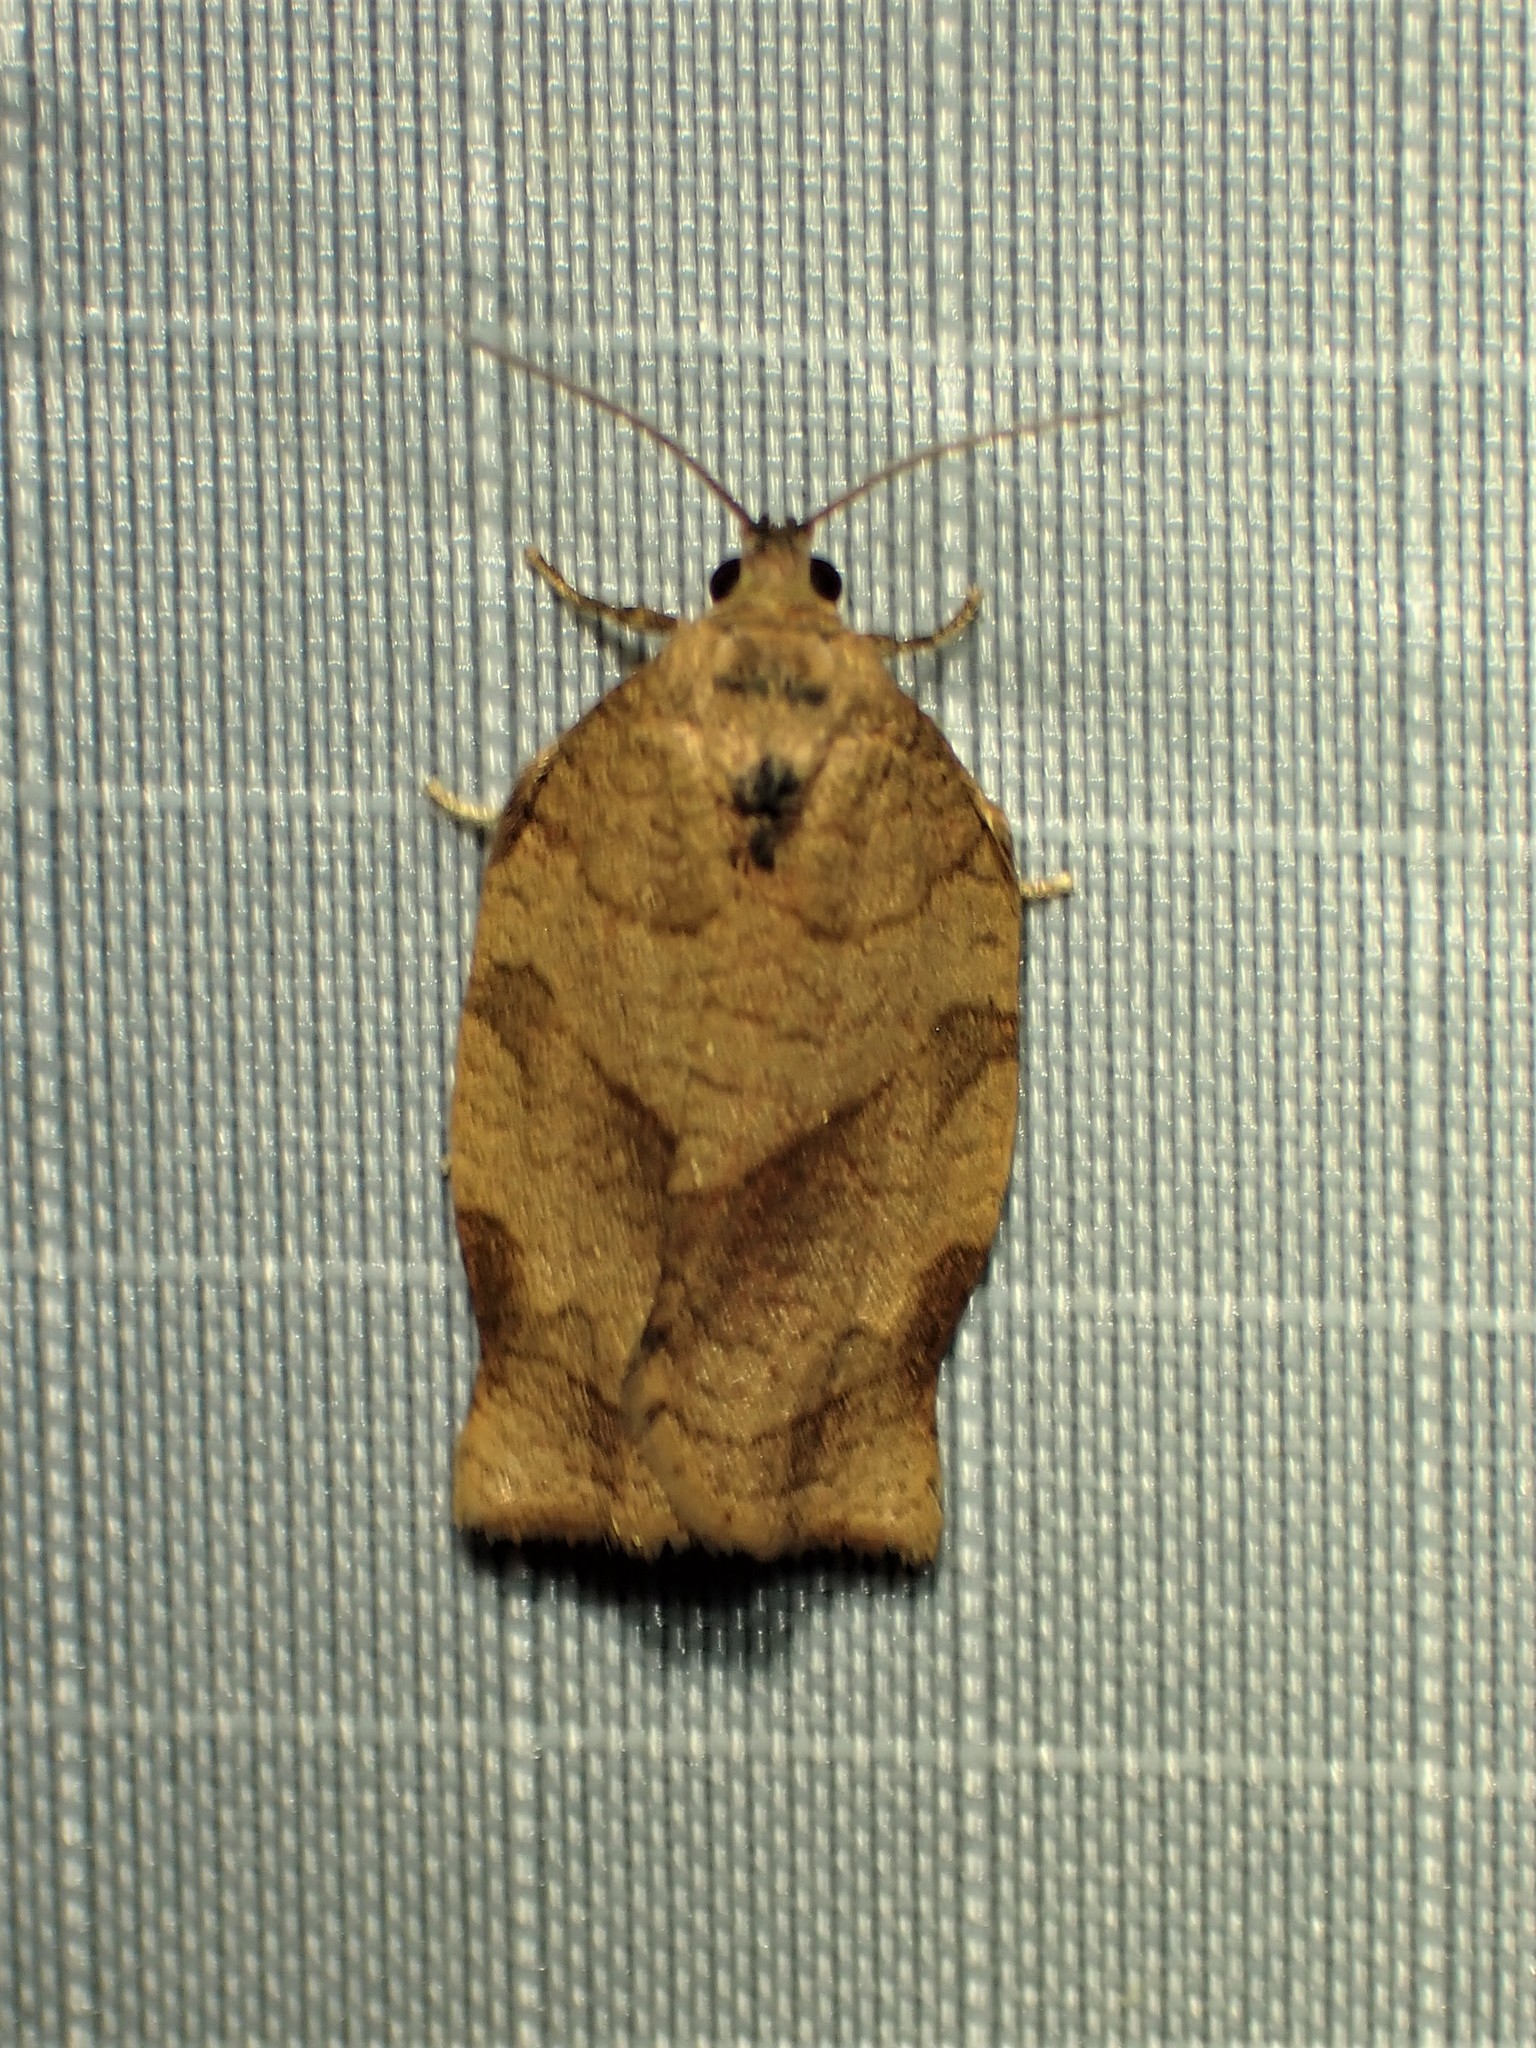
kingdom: Animalia
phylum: Arthropoda
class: Insecta
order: Lepidoptera
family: Tortricidae
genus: Choristoneura
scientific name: Choristoneura rosaceana
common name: Oblique-banded leafroller moth
